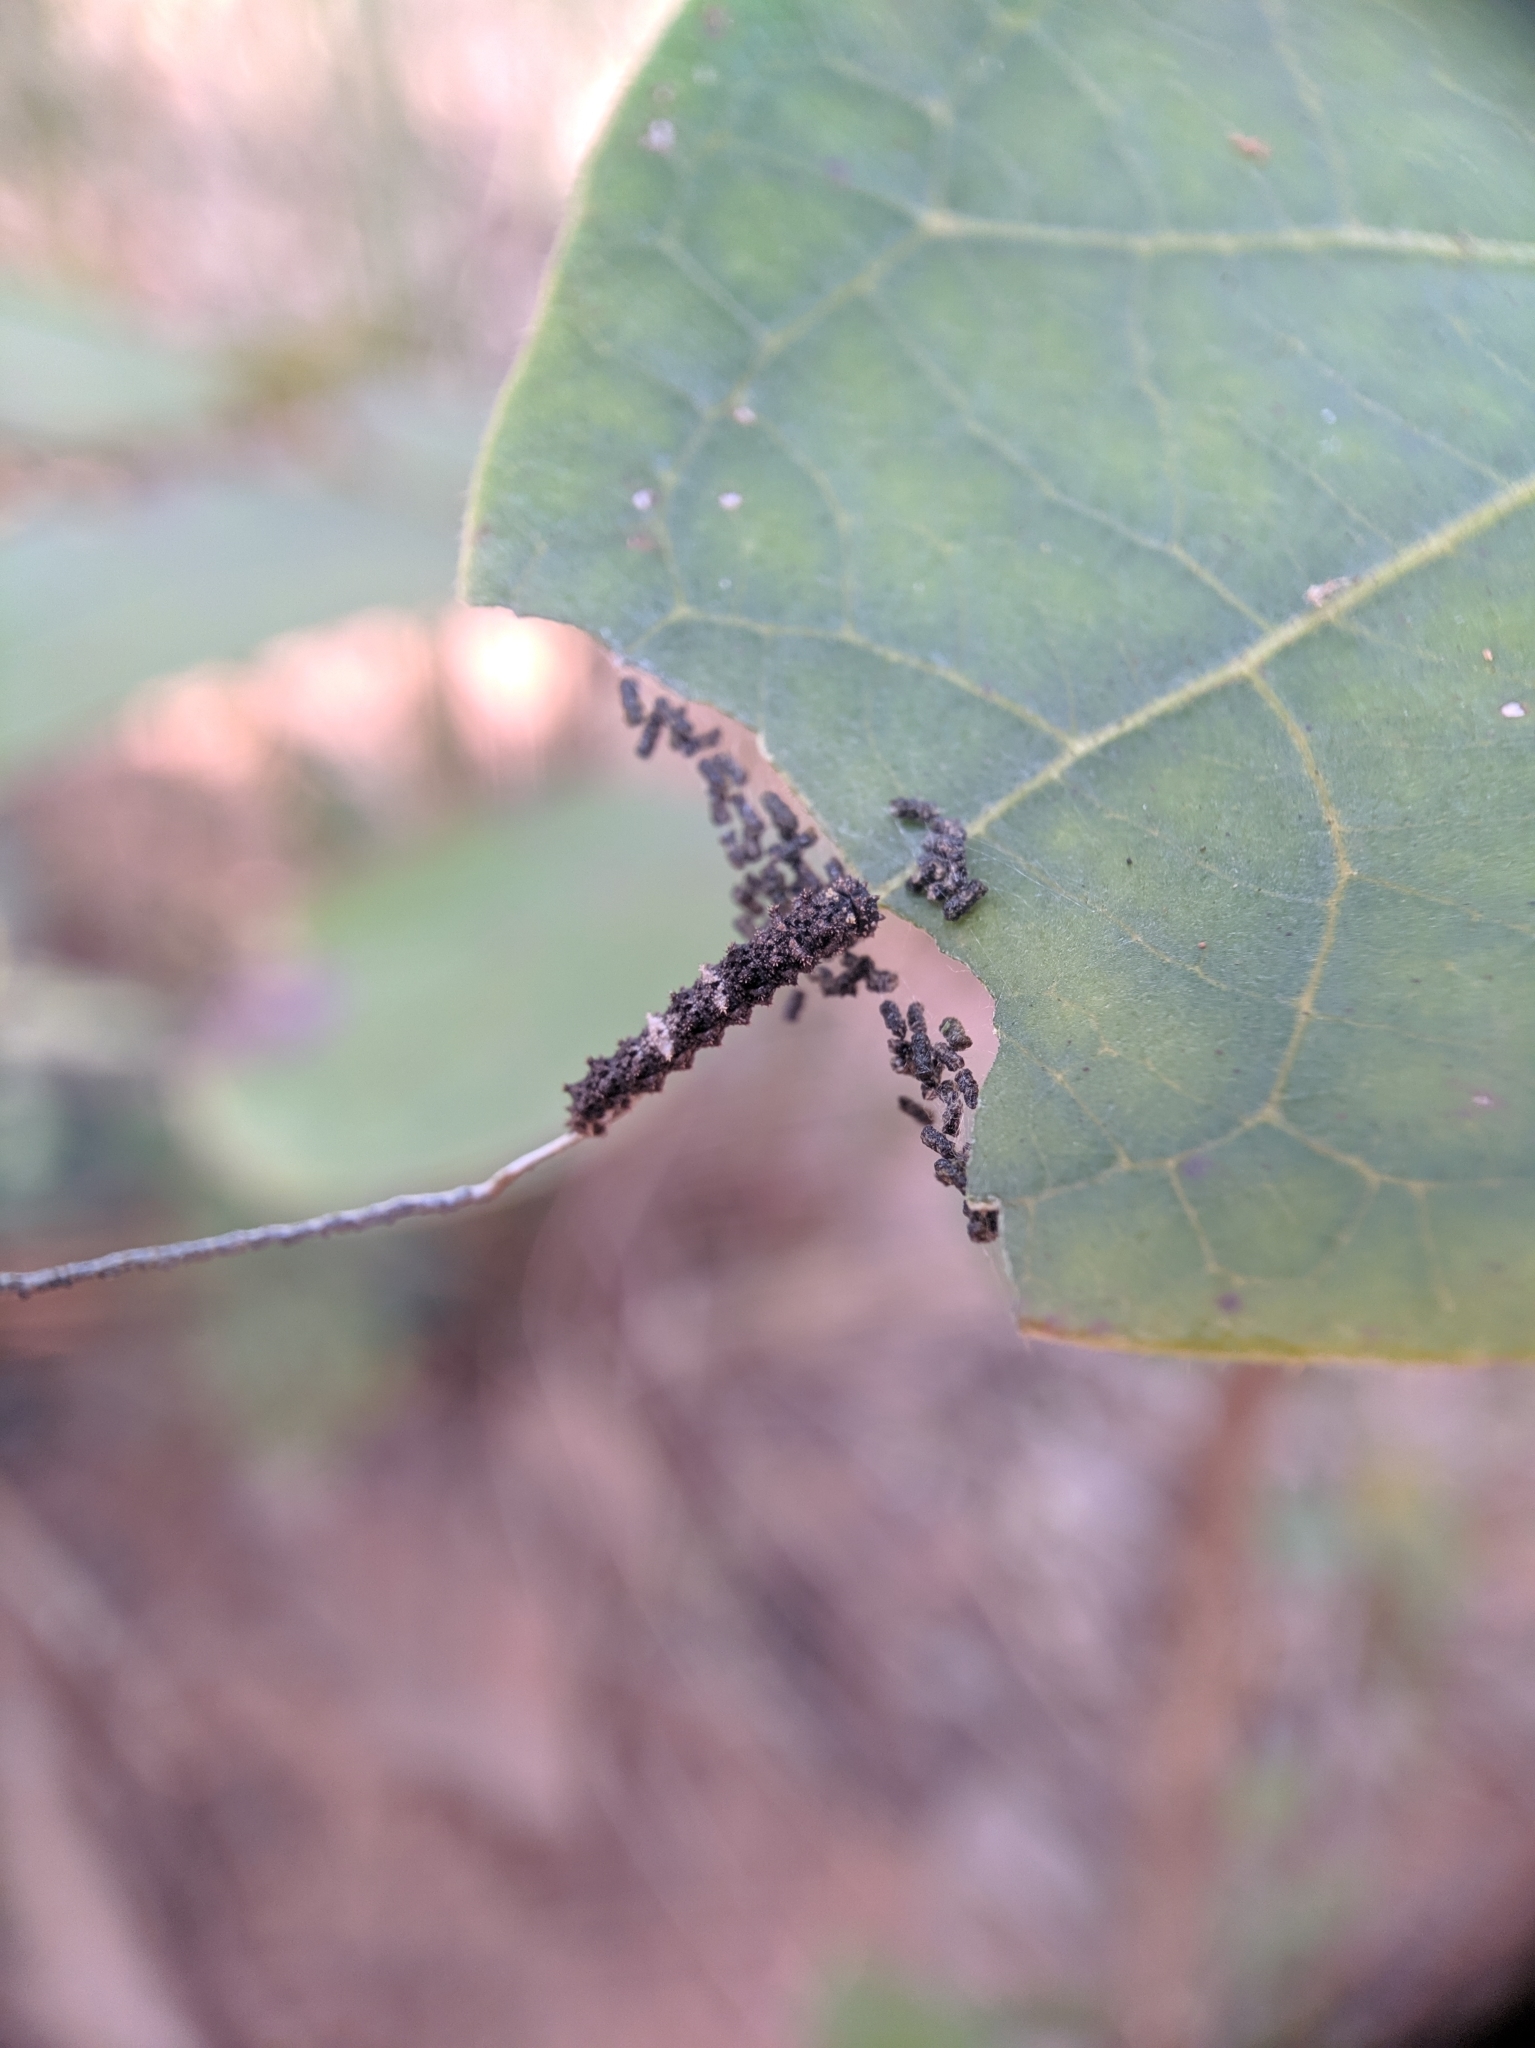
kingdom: Animalia
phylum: Arthropoda
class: Insecta
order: Lepidoptera
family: Nymphalidae
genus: Limenitis
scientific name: Limenitis Moduza procris
